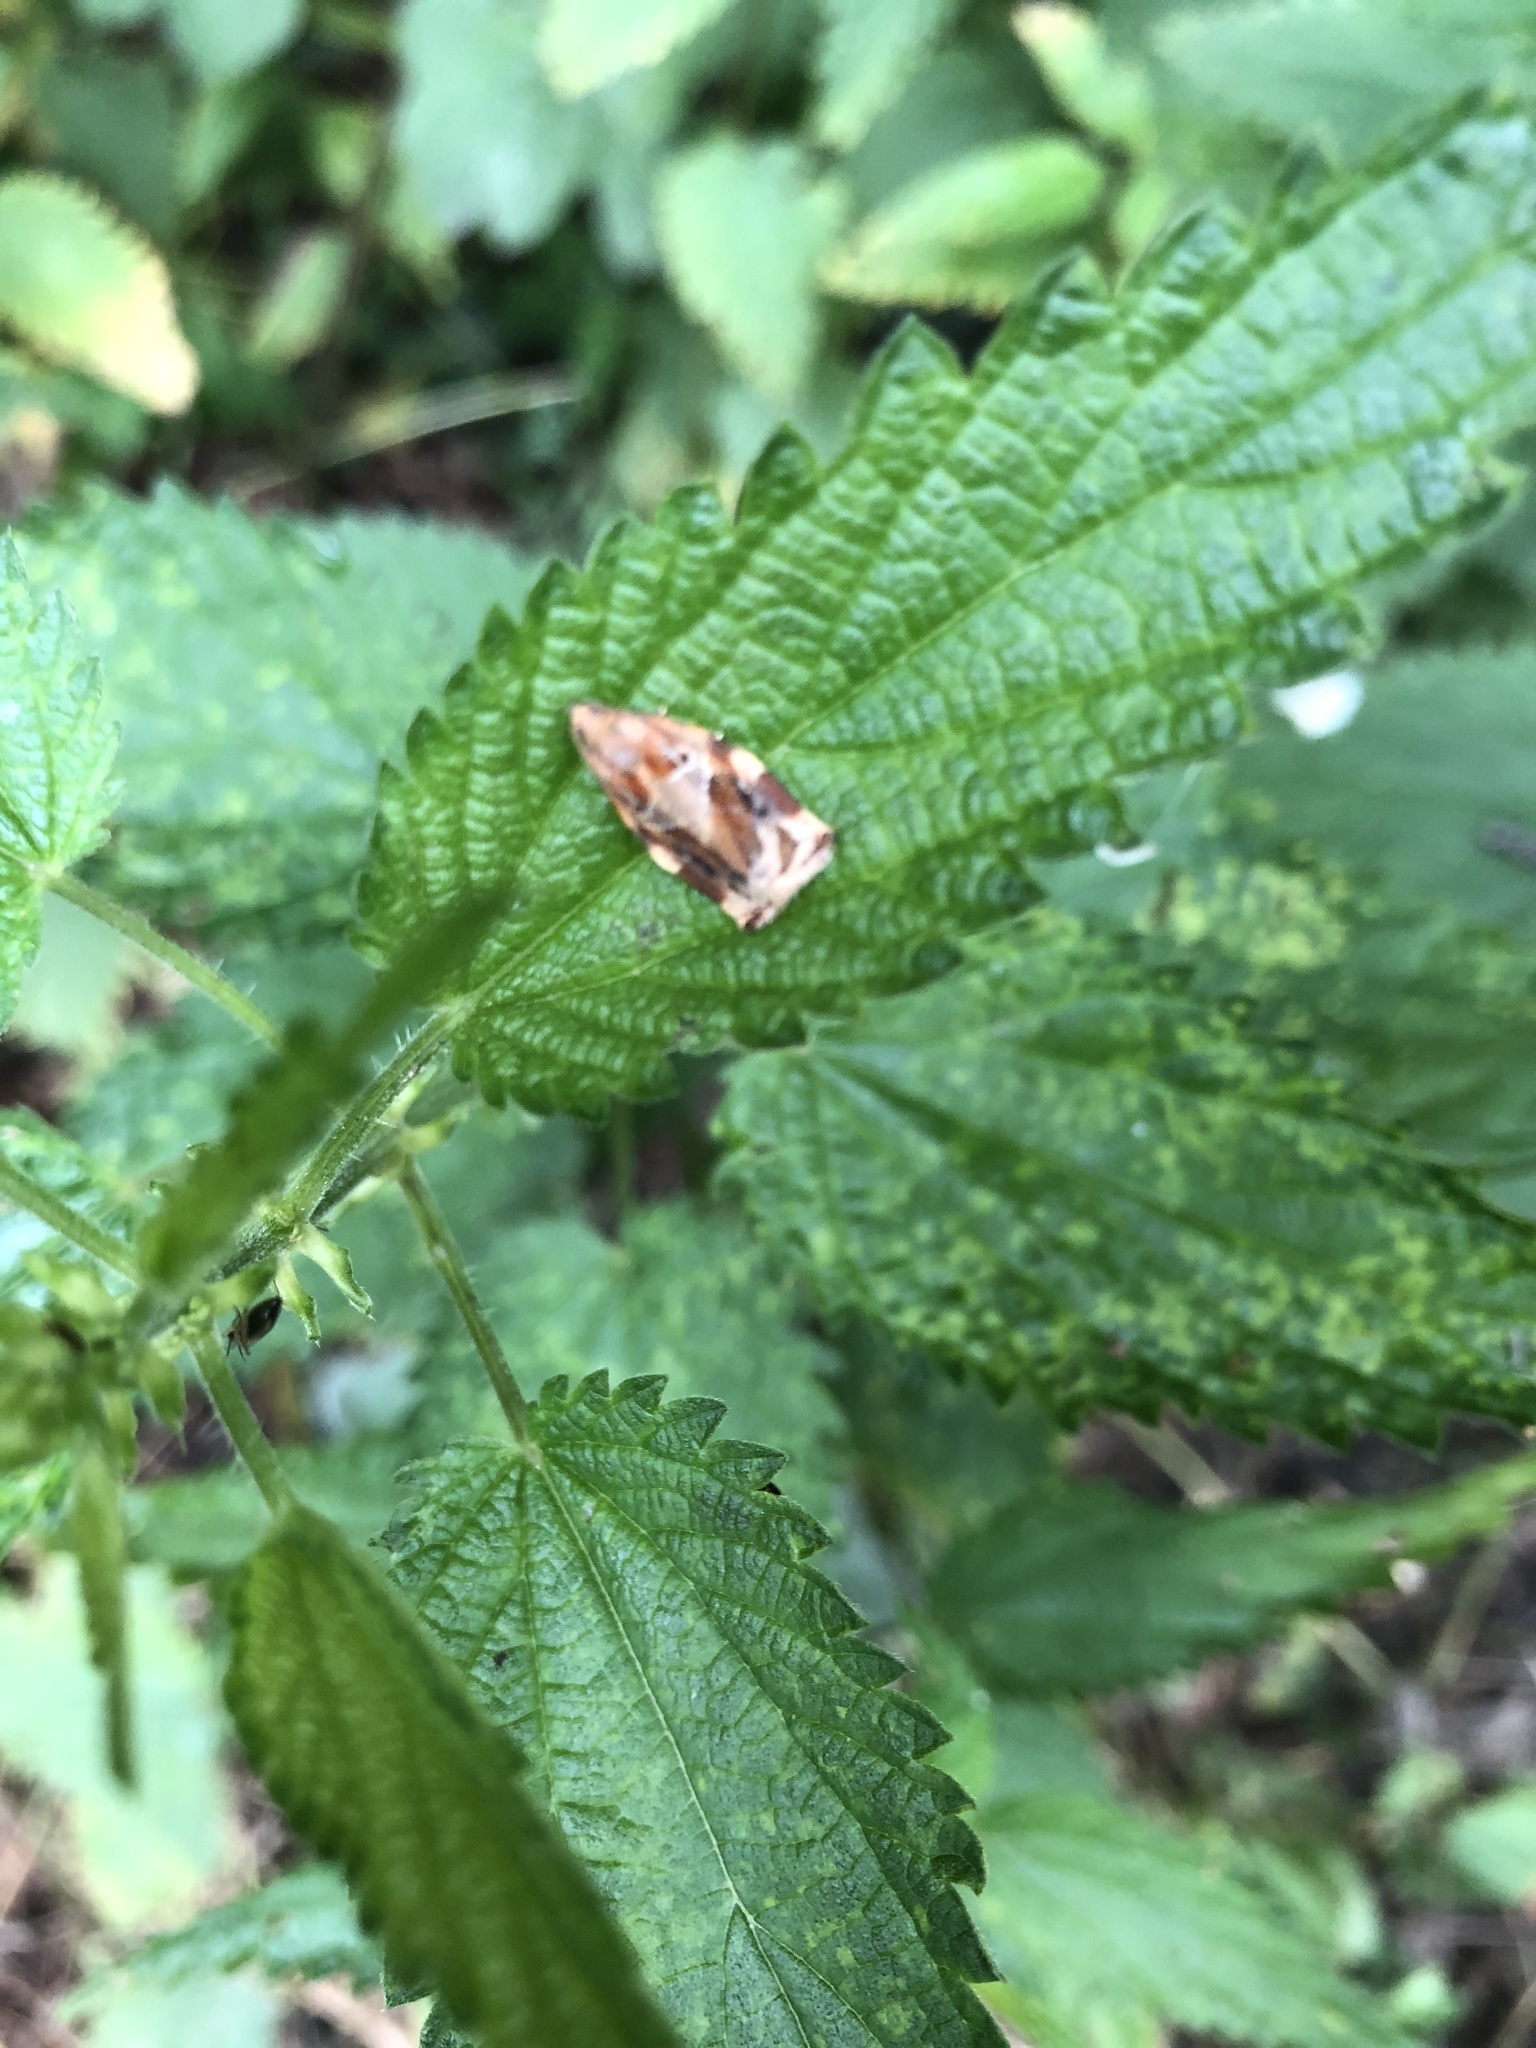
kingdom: Animalia
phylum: Arthropoda
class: Insecta
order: Lepidoptera
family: Tortricidae
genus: Archips
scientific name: Archips xylosteana
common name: Variegated golden tortrix
